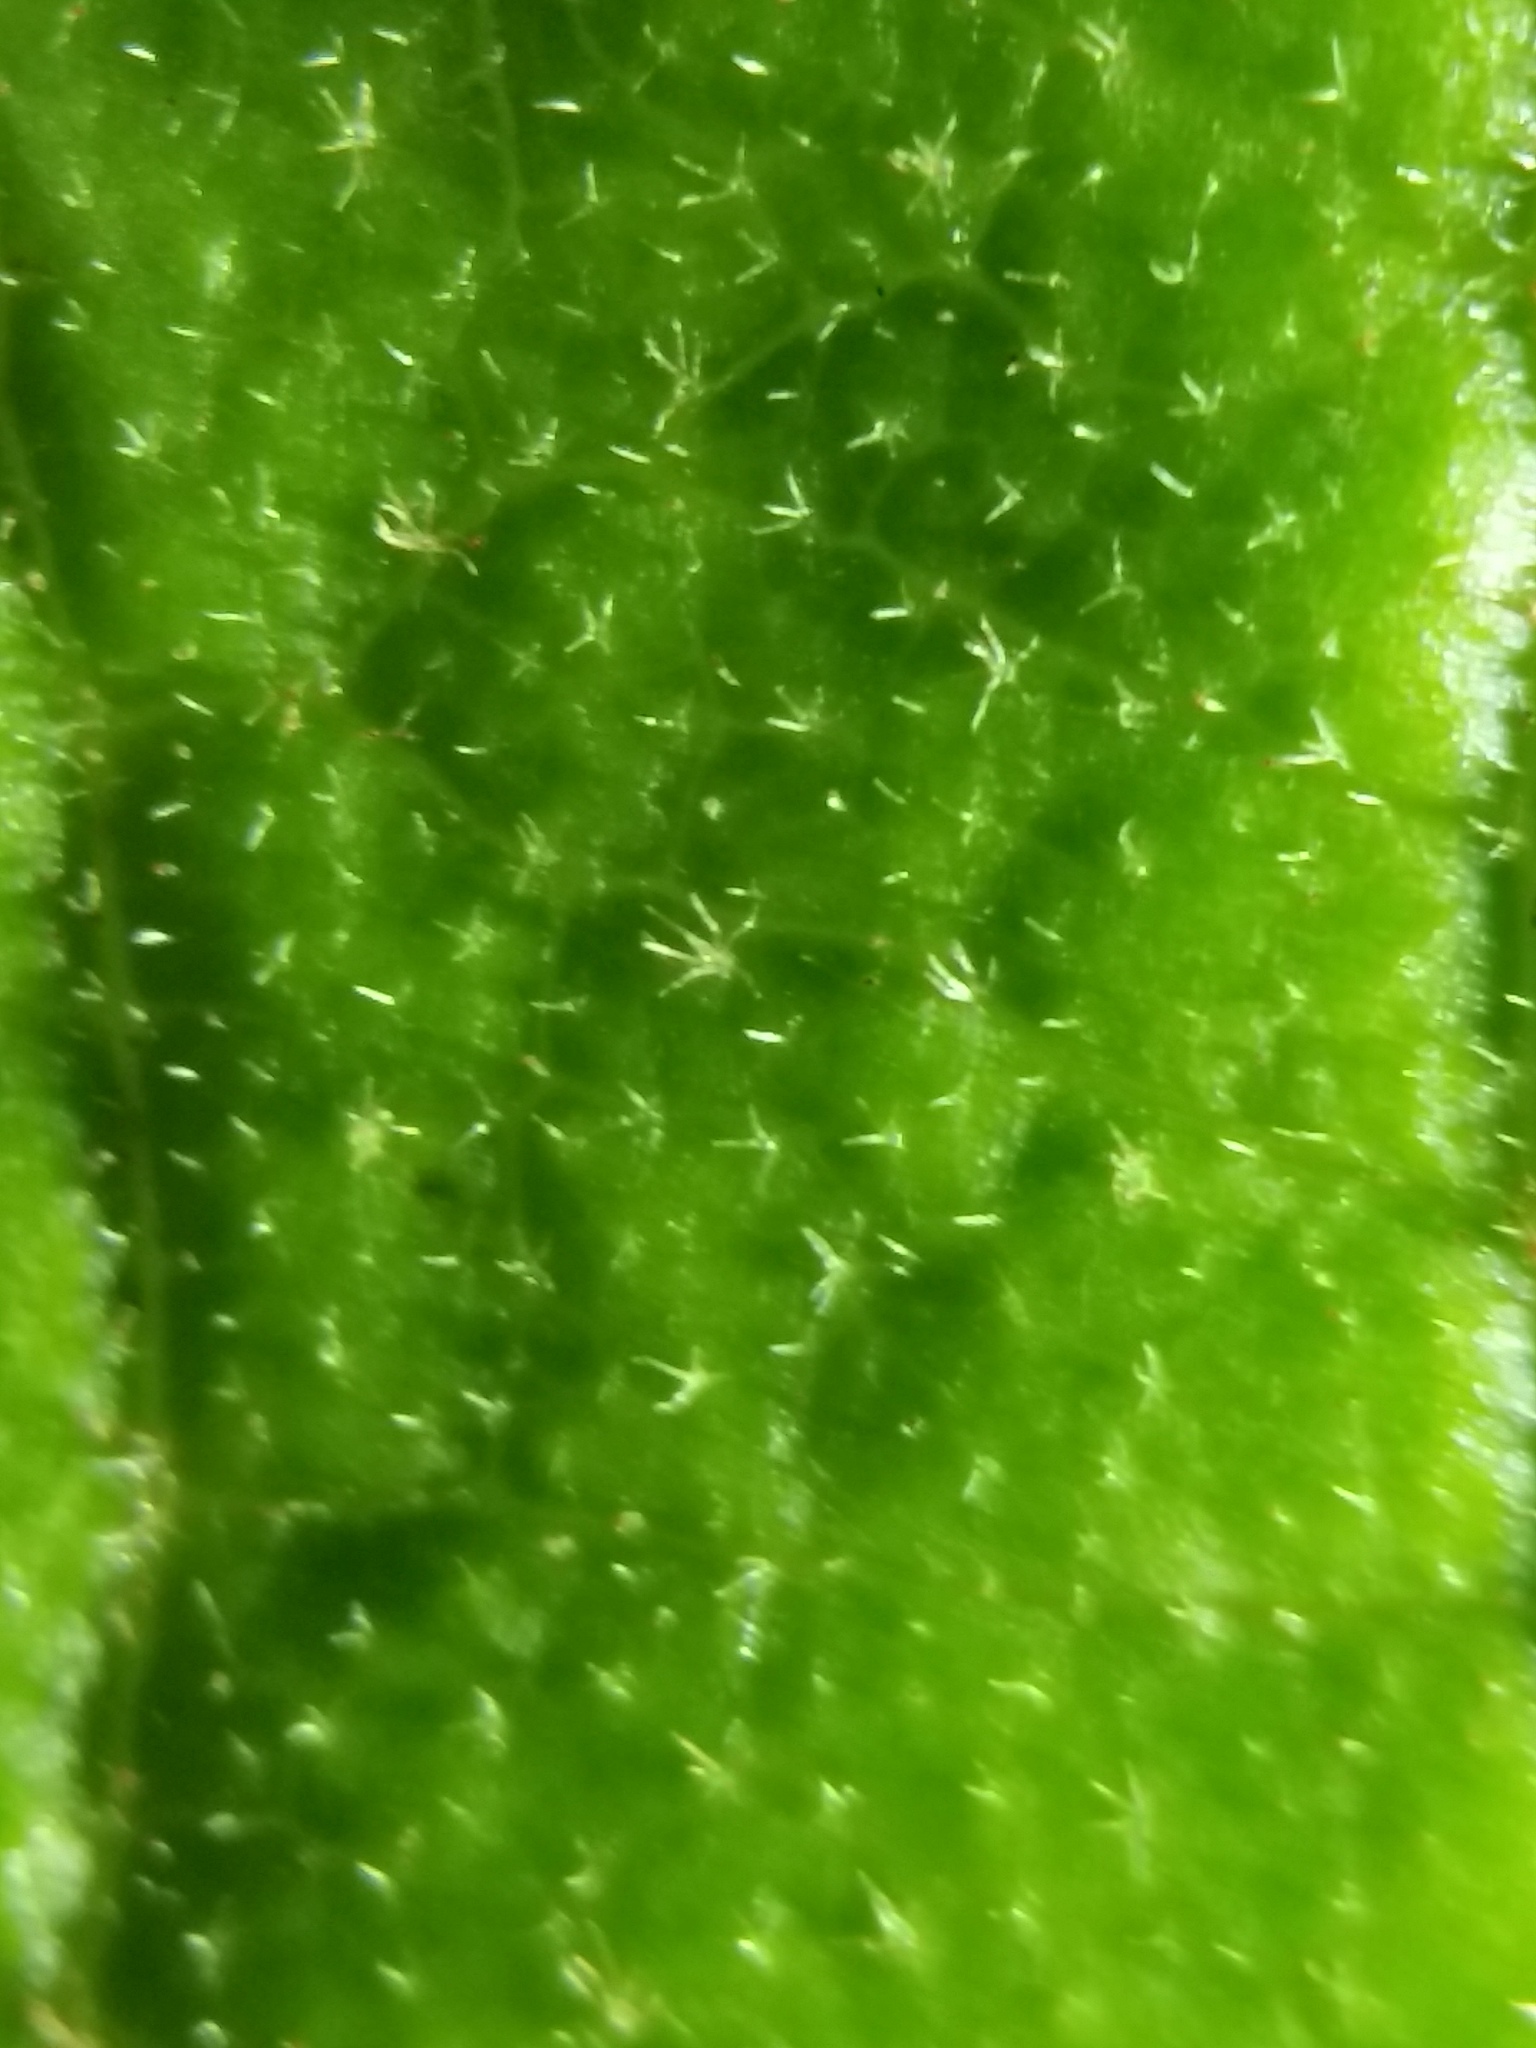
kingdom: Plantae
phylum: Tracheophyta
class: Magnoliopsida
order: Dipsacales
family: Viburnaceae
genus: Viburnum
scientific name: Viburnum venosum
